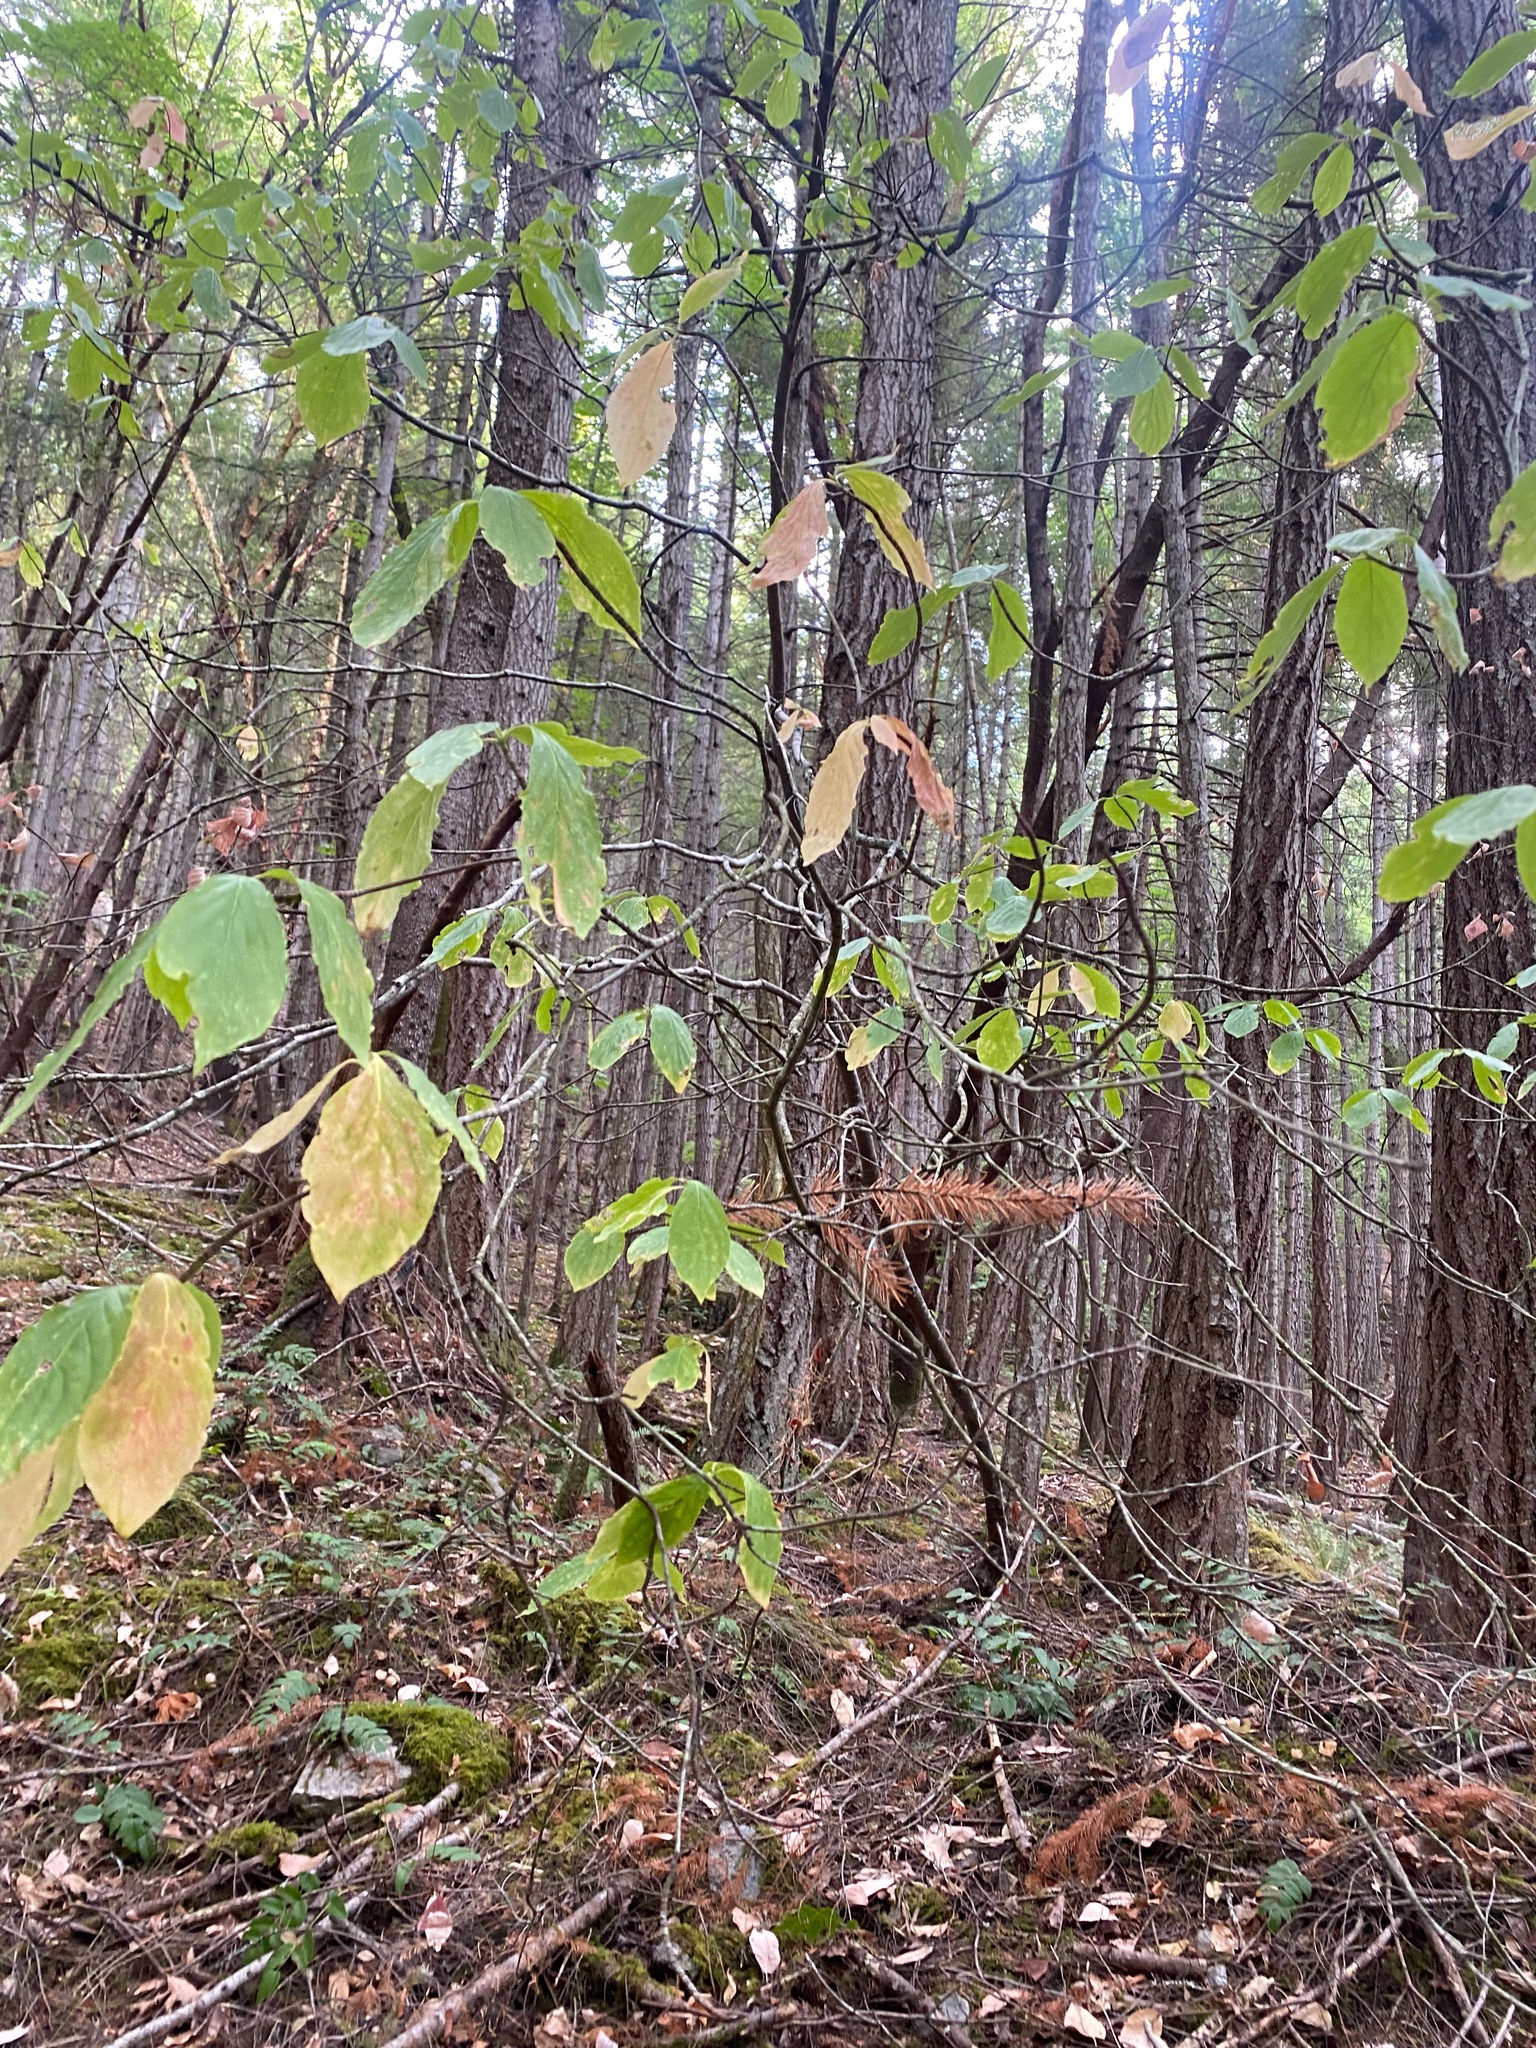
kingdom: Plantae
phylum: Tracheophyta
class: Magnoliopsida
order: Cornales
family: Cornaceae
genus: Cornus
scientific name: Cornus nuttallii
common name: Pacific dogwood
